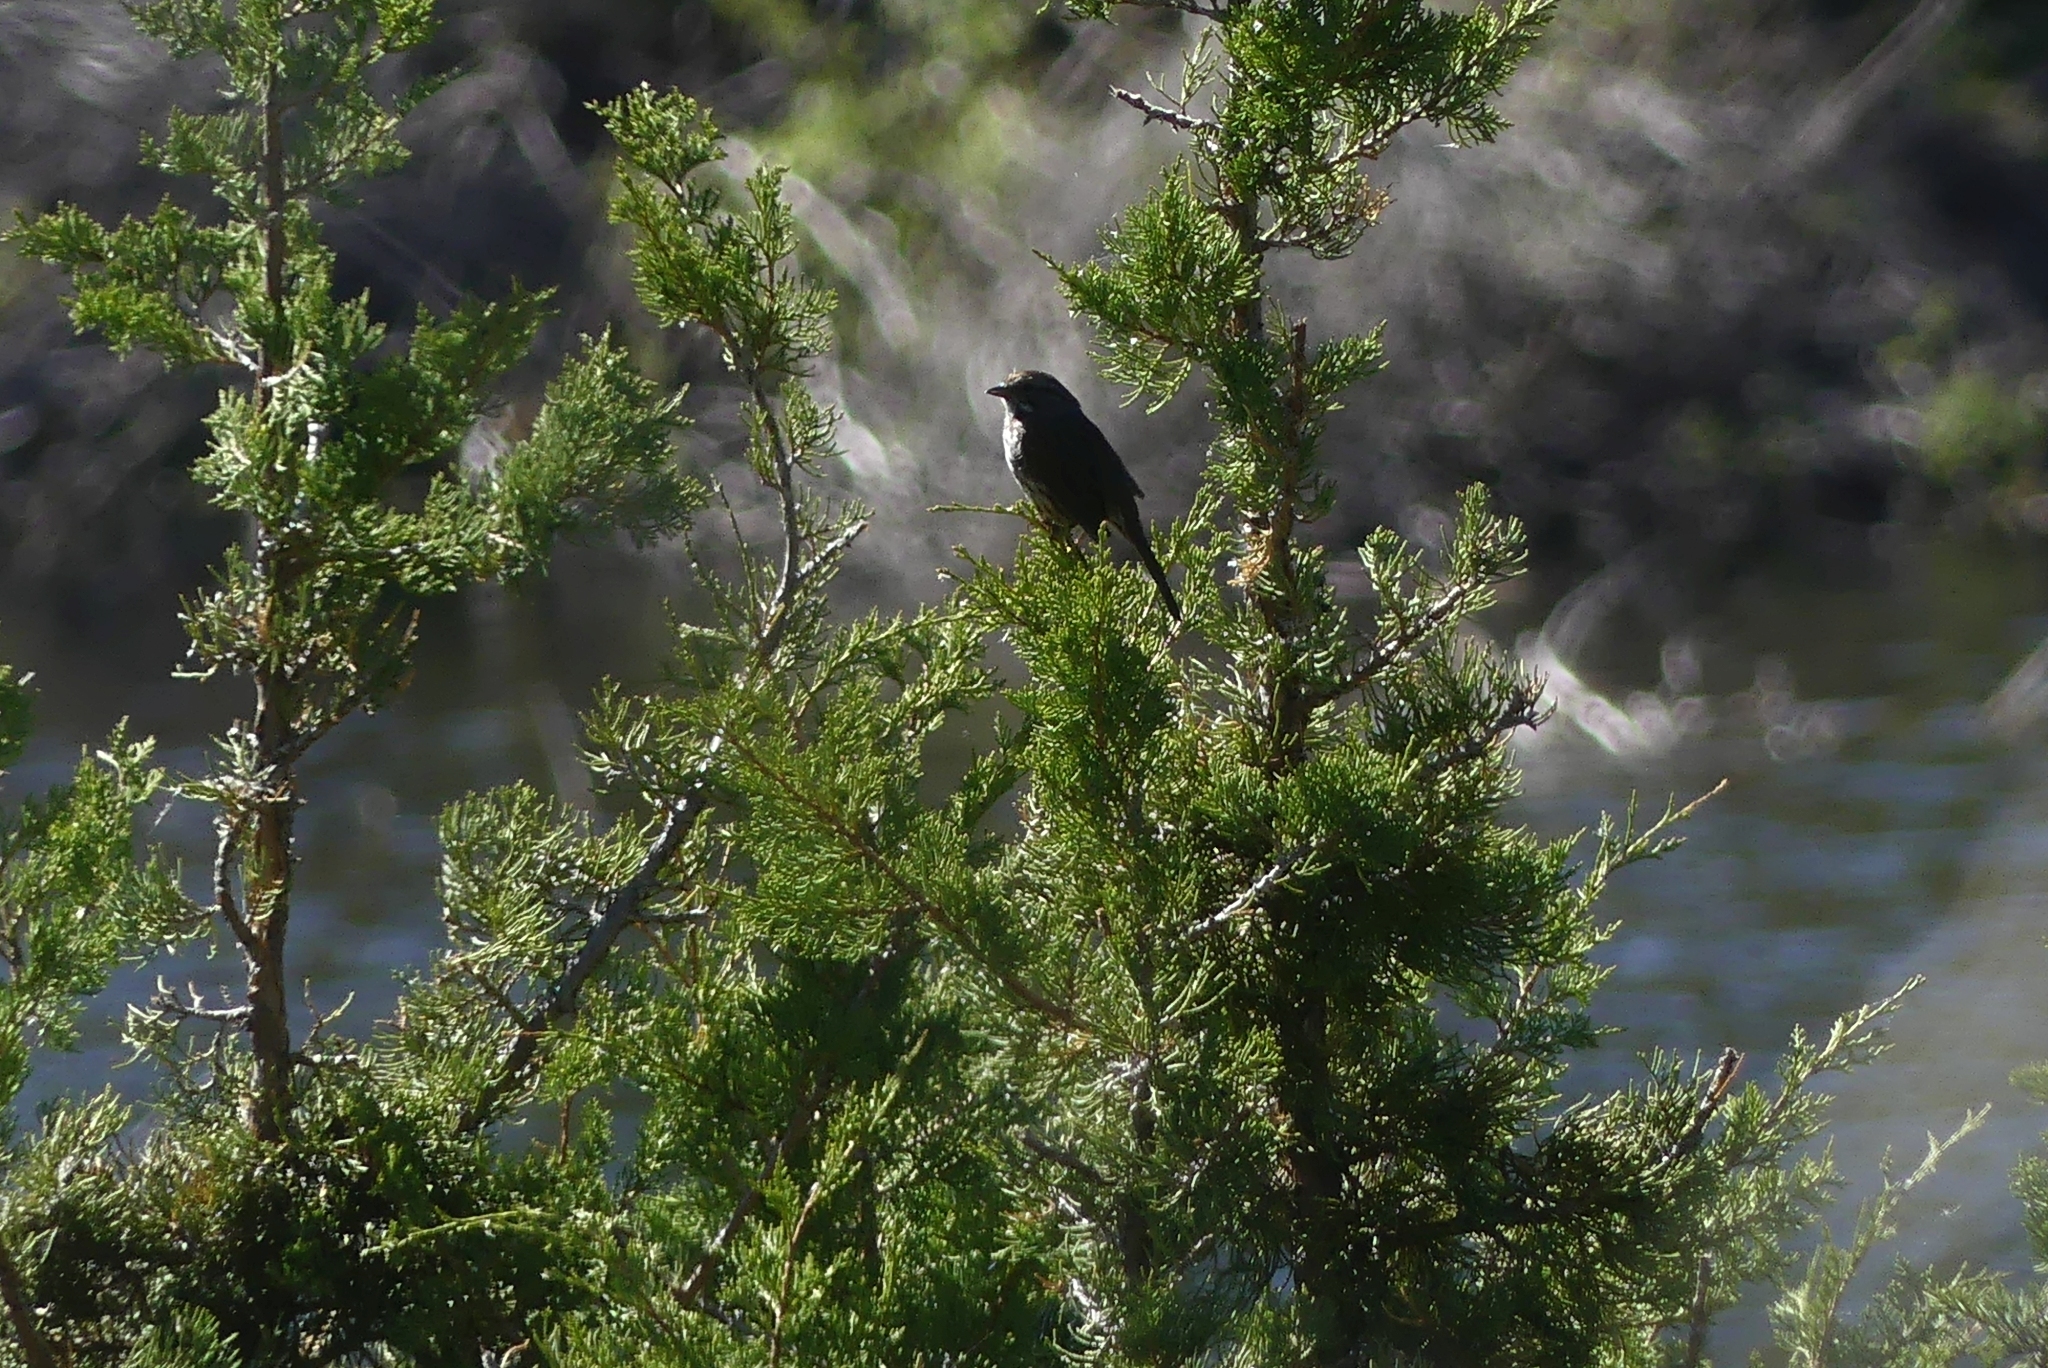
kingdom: Animalia
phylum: Chordata
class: Aves
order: Passeriformes
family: Passerellidae
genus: Melospiza
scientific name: Melospiza melodia
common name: Song sparrow
